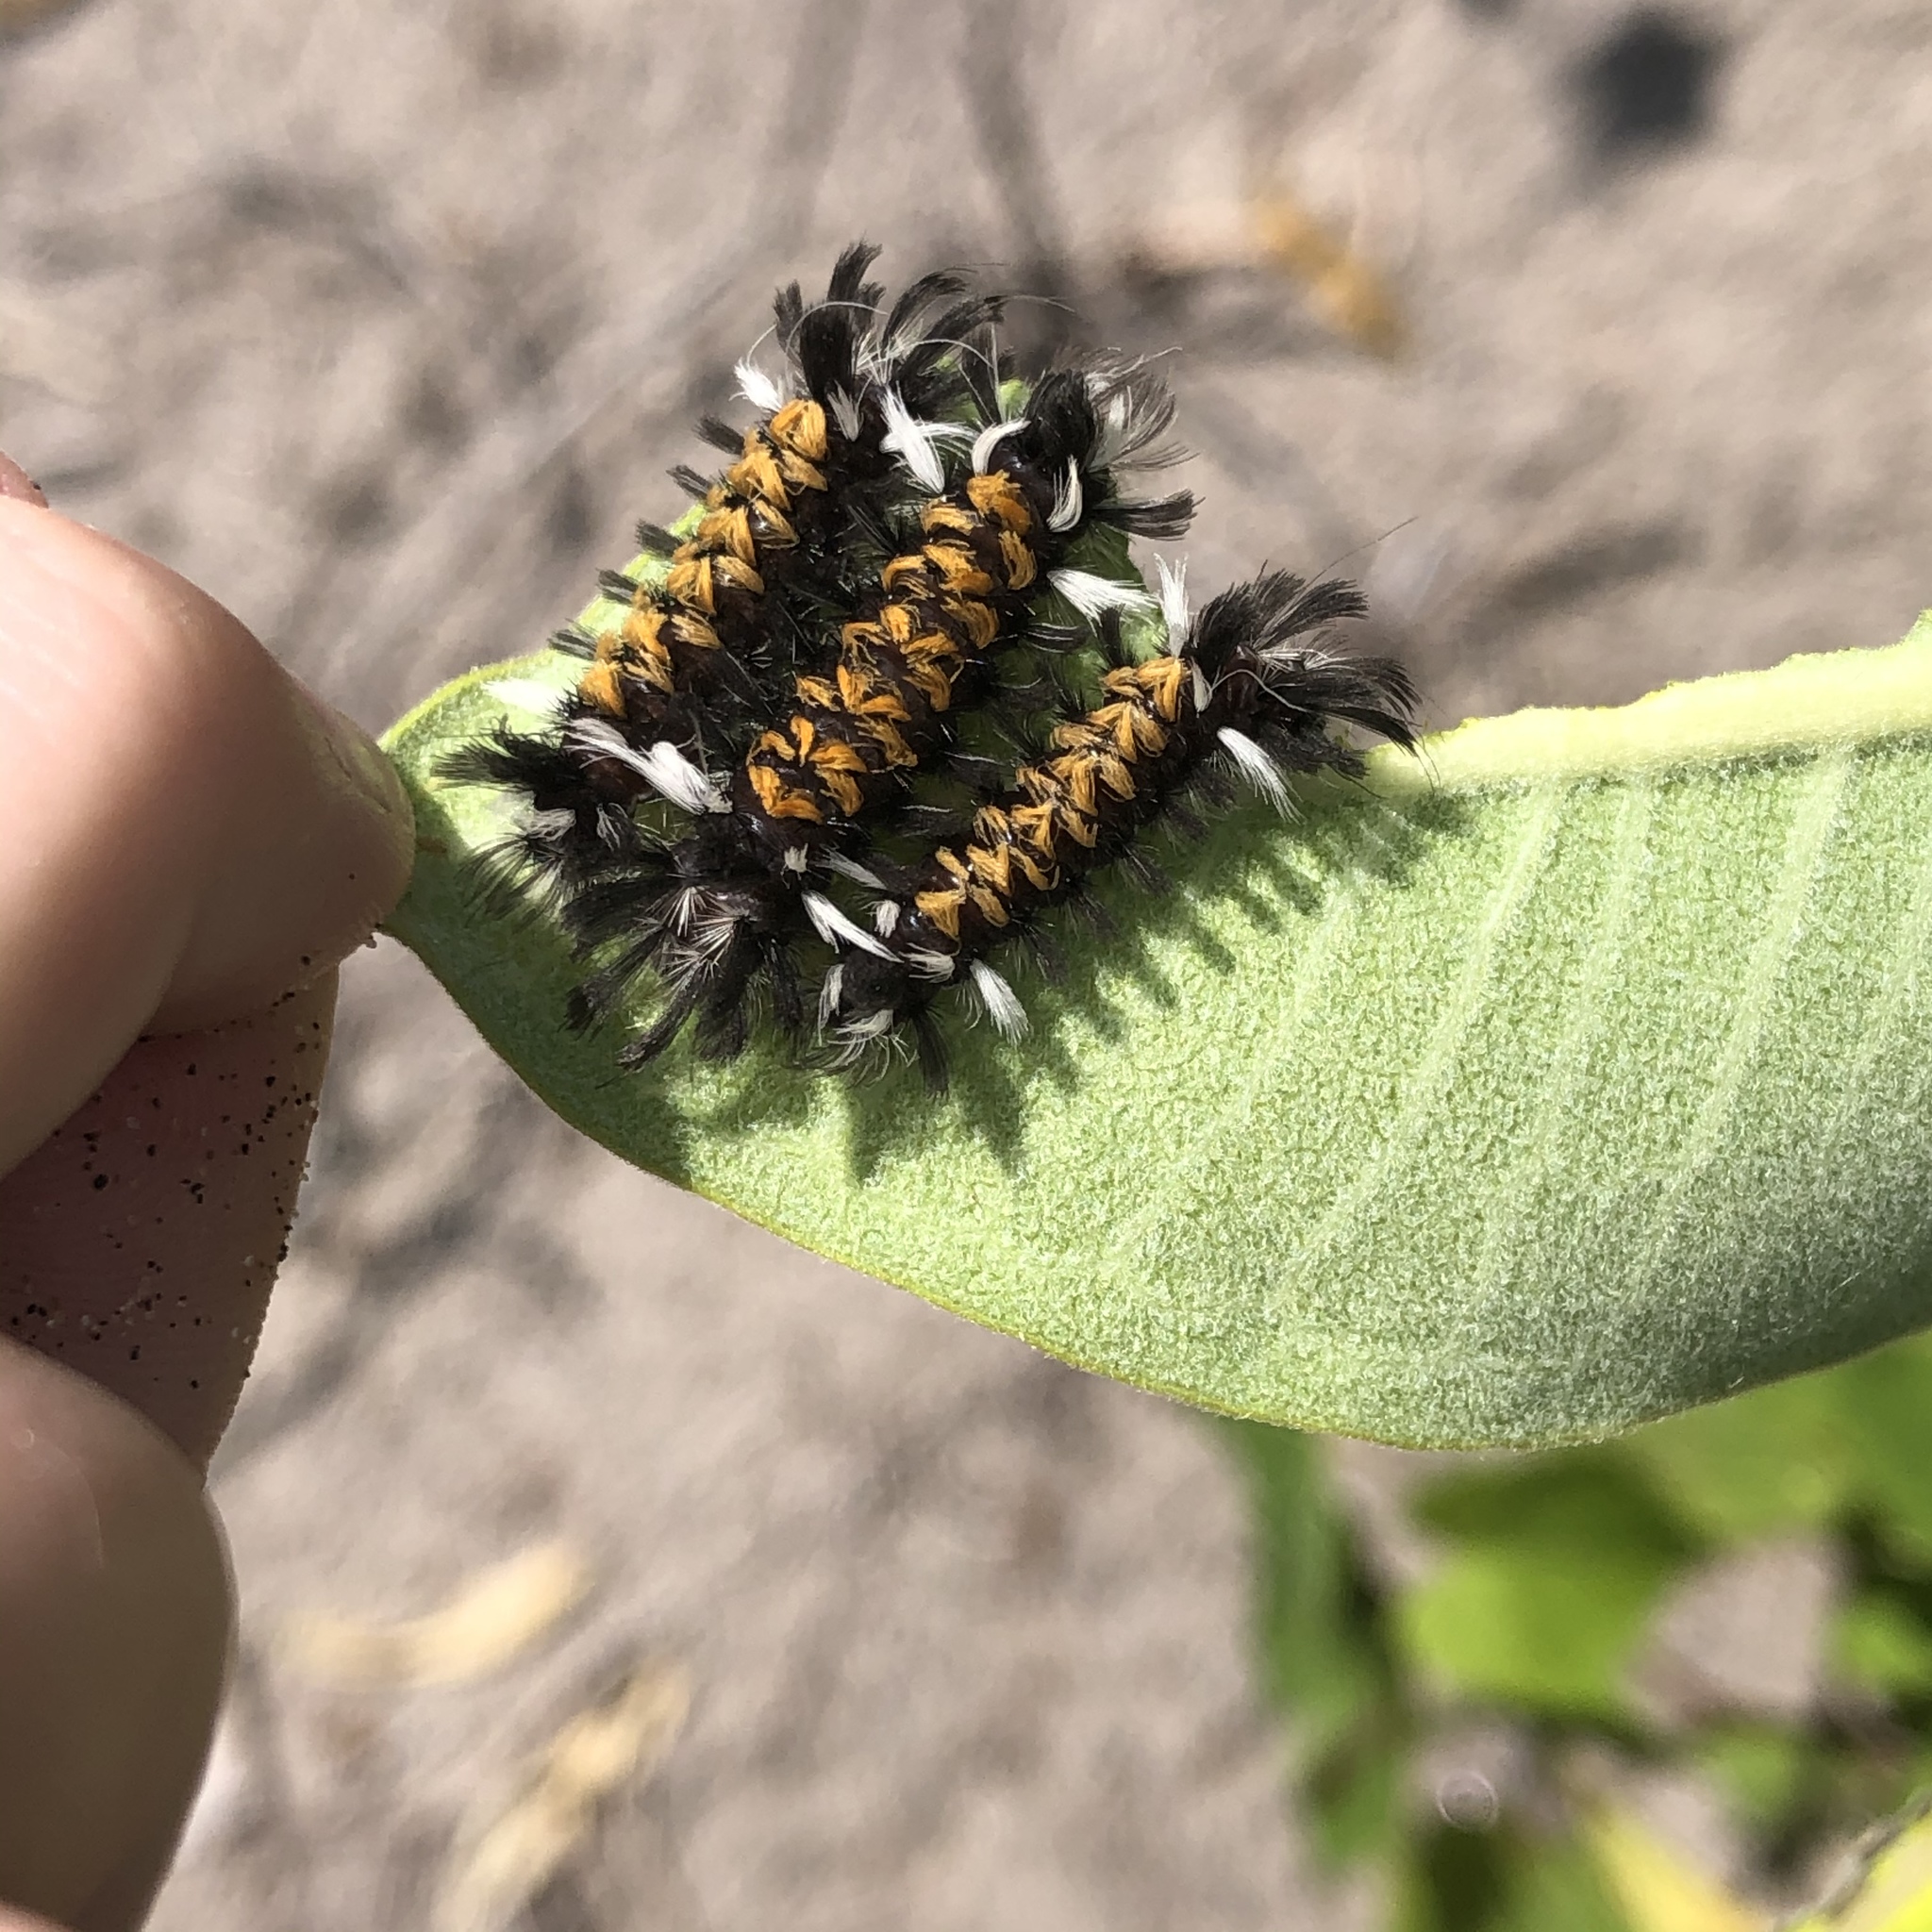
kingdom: Animalia
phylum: Arthropoda
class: Insecta
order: Lepidoptera
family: Erebidae
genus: Euchaetes
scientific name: Euchaetes egle
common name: Milkweed tussock moth
